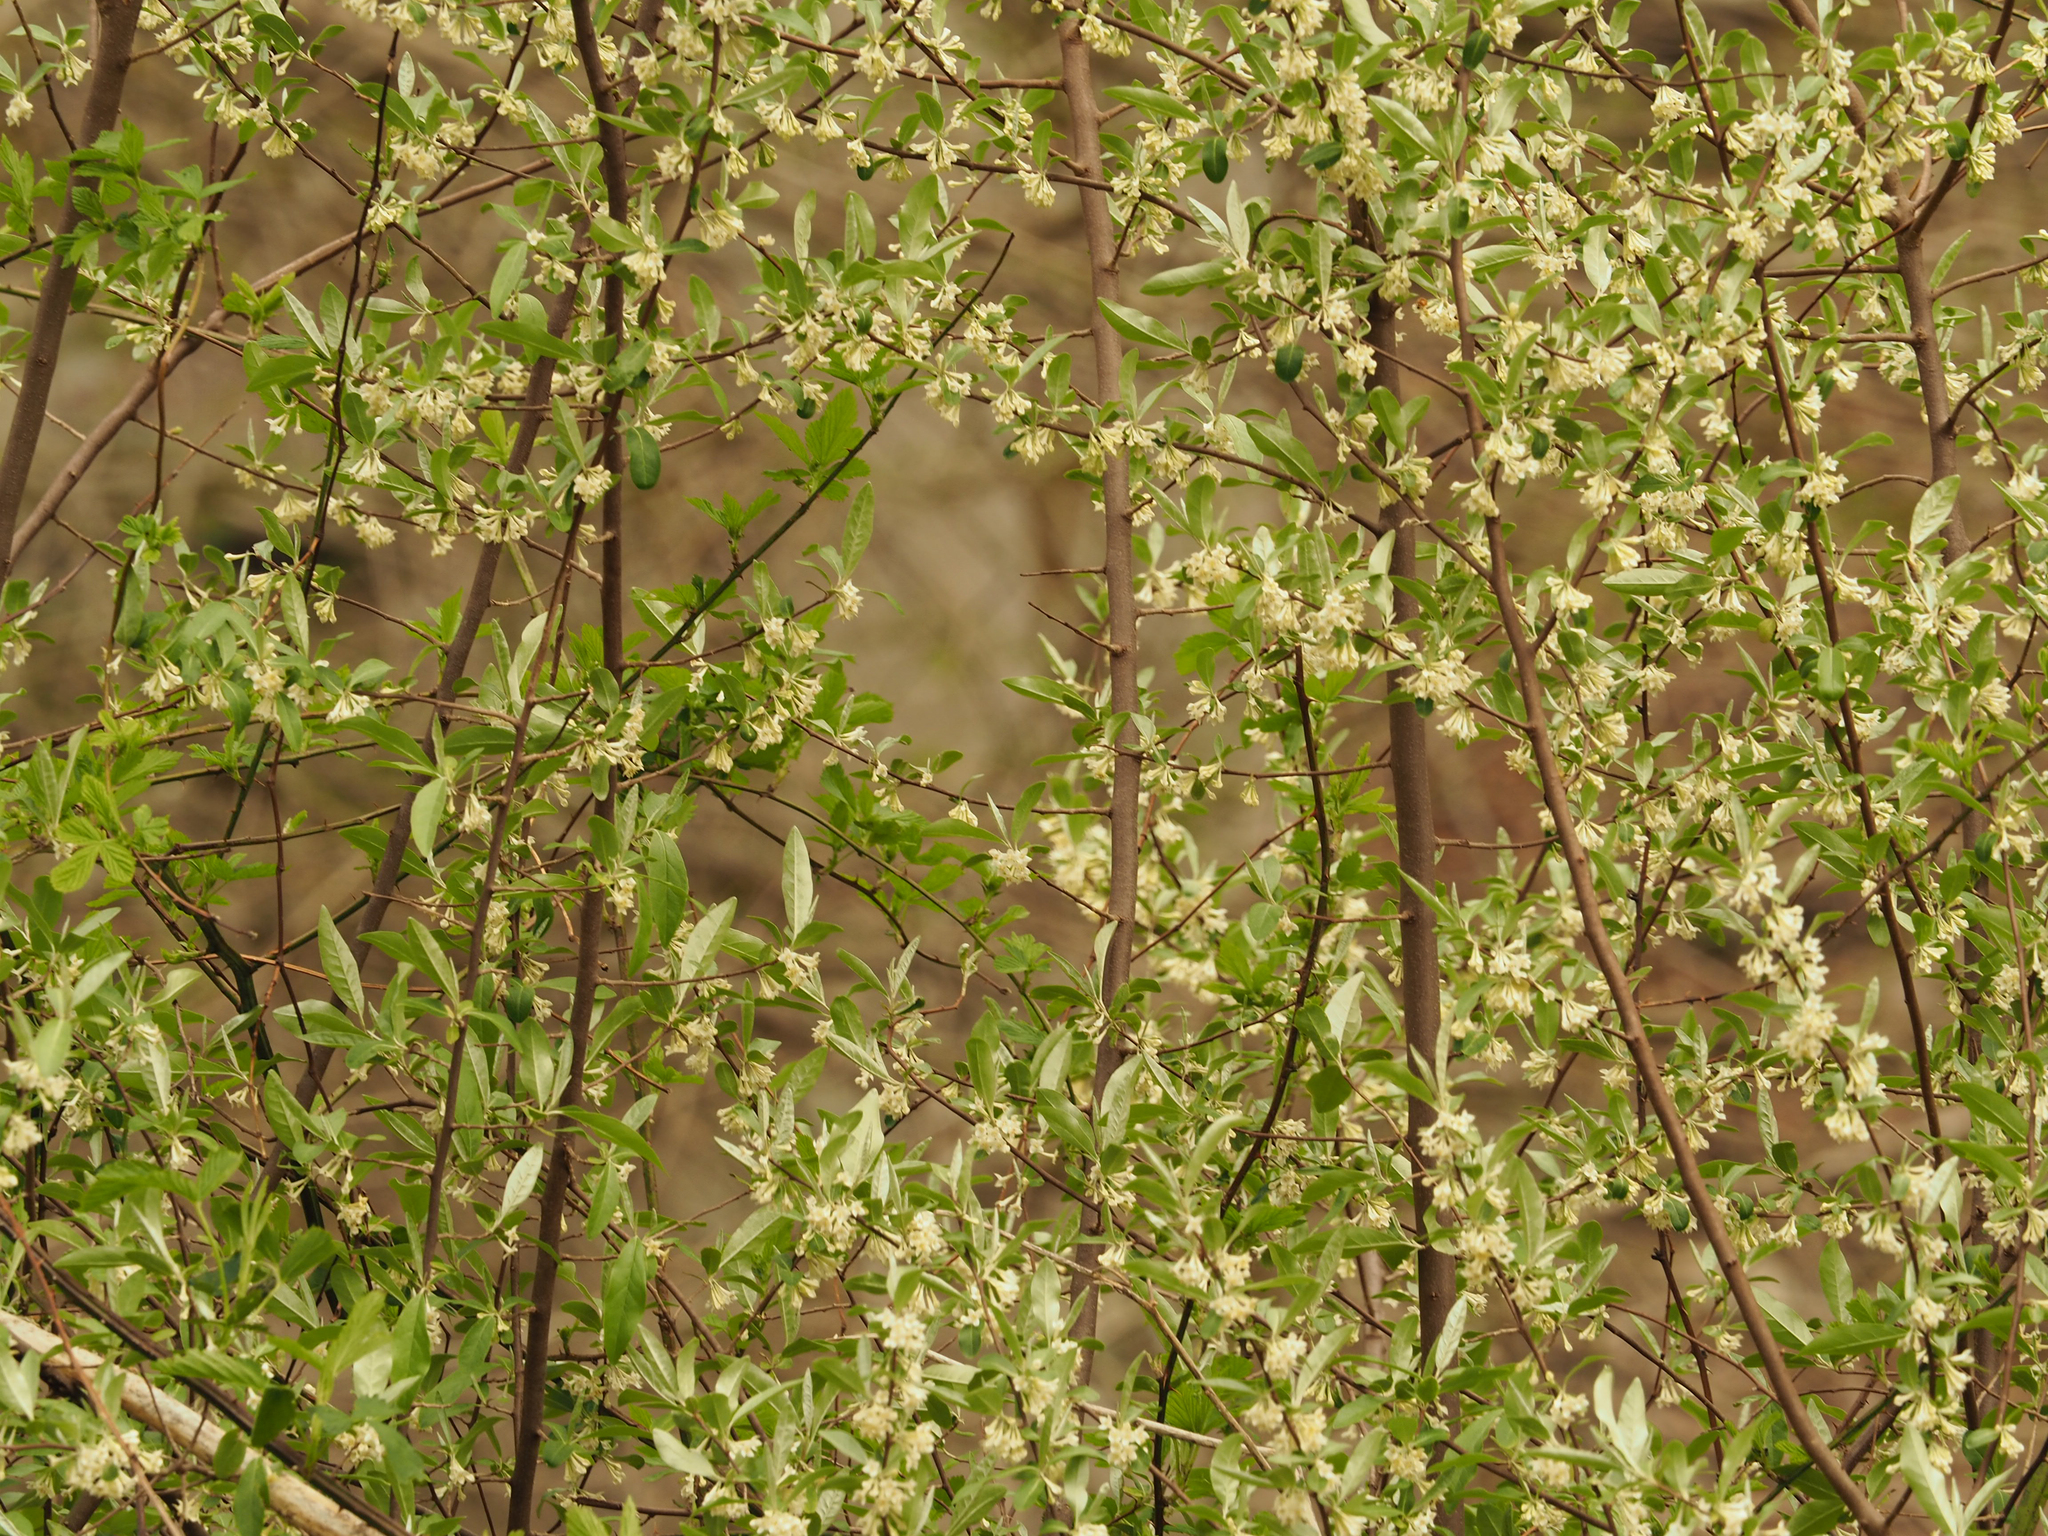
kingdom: Plantae
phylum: Tracheophyta
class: Magnoliopsida
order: Rosales
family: Elaeagnaceae
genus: Elaeagnus
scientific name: Elaeagnus umbellata
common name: Autumn olive
